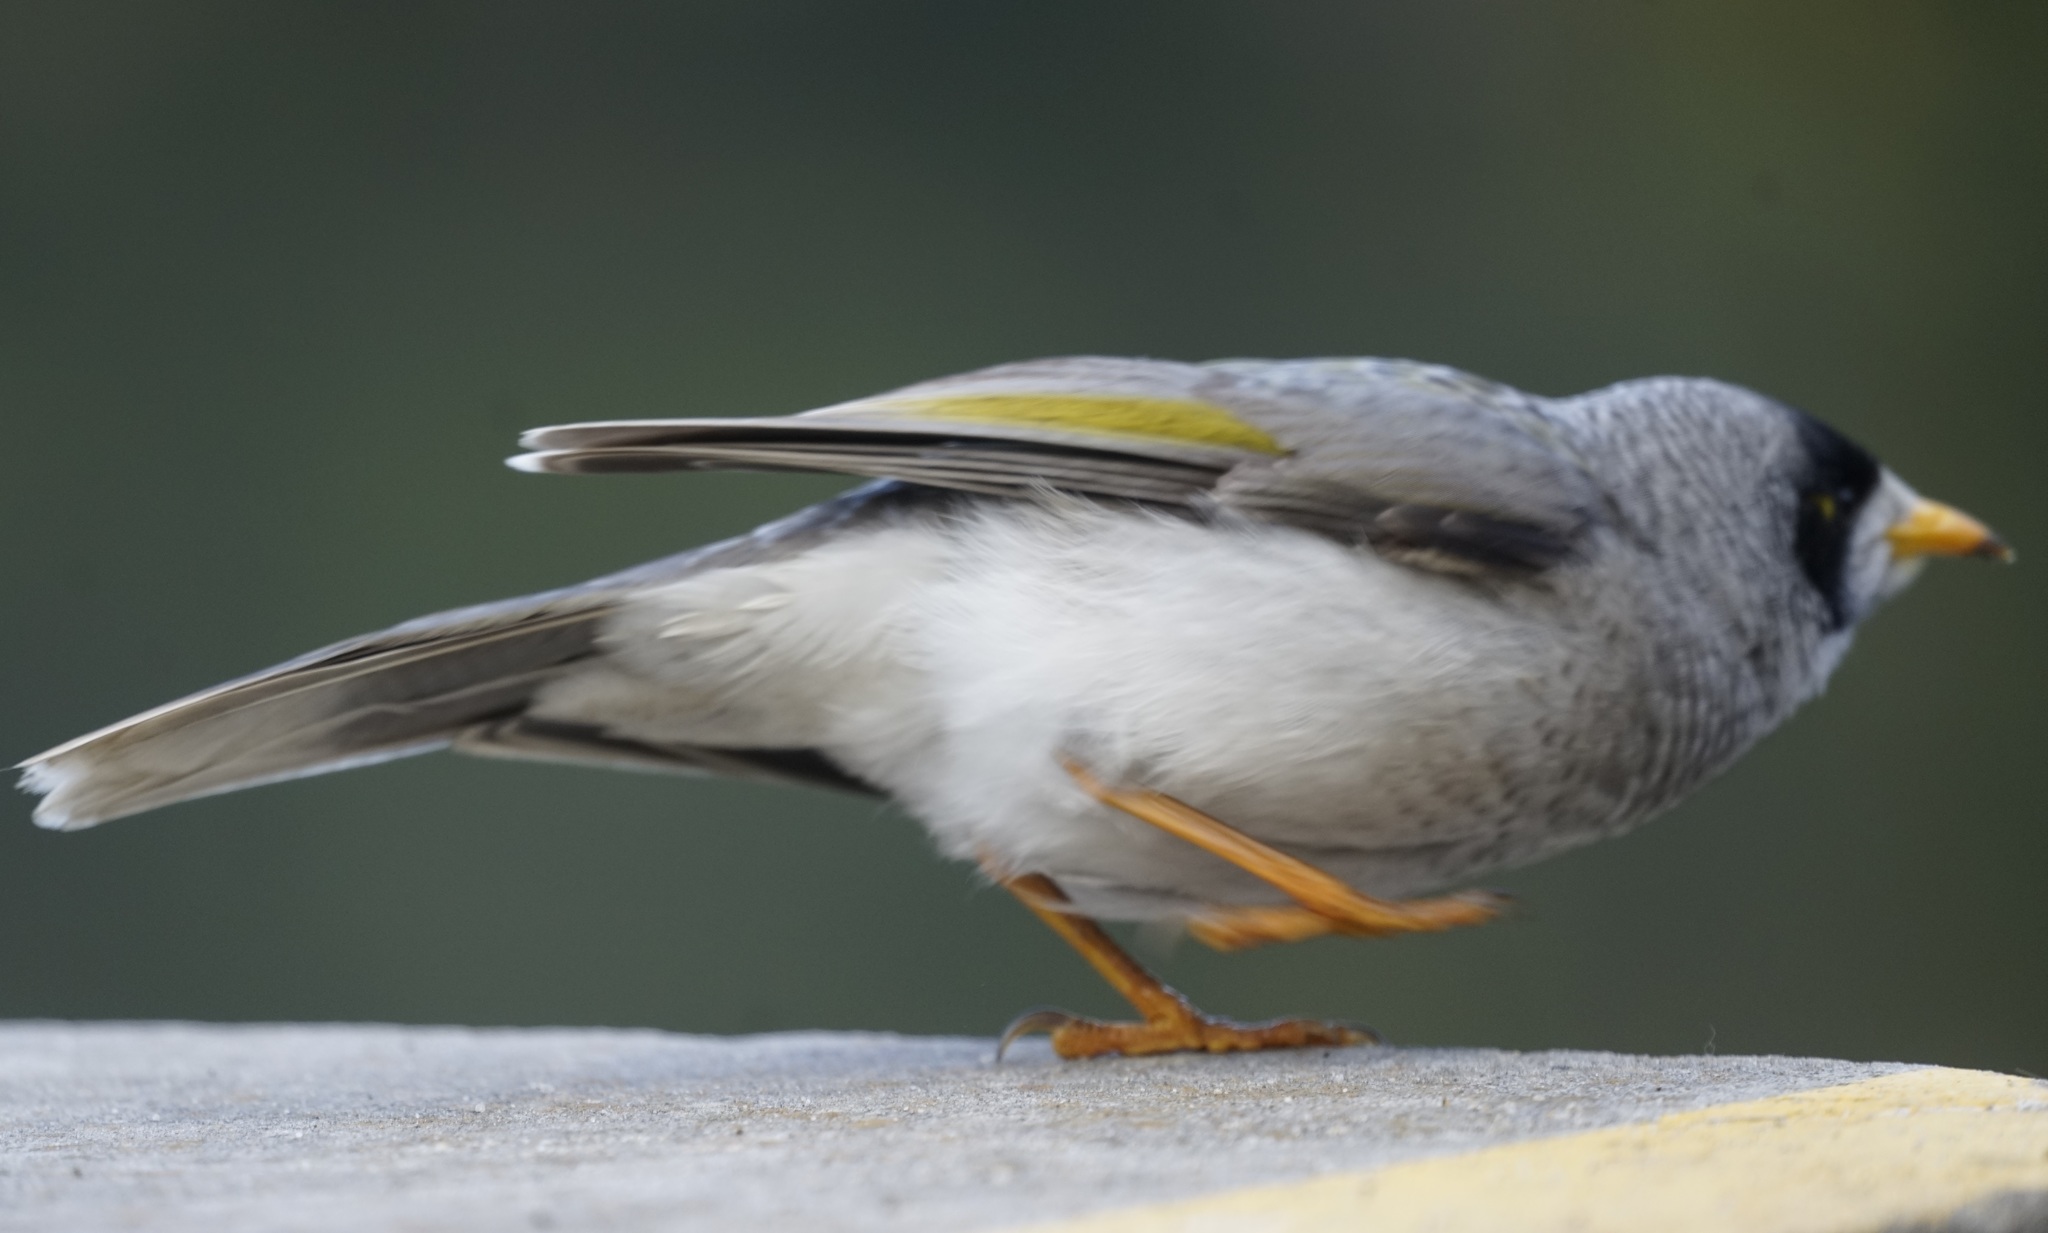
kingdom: Animalia
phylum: Chordata
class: Aves
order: Passeriformes
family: Meliphagidae
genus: Manorina
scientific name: Manorina melanocephala
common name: Noisy miner
